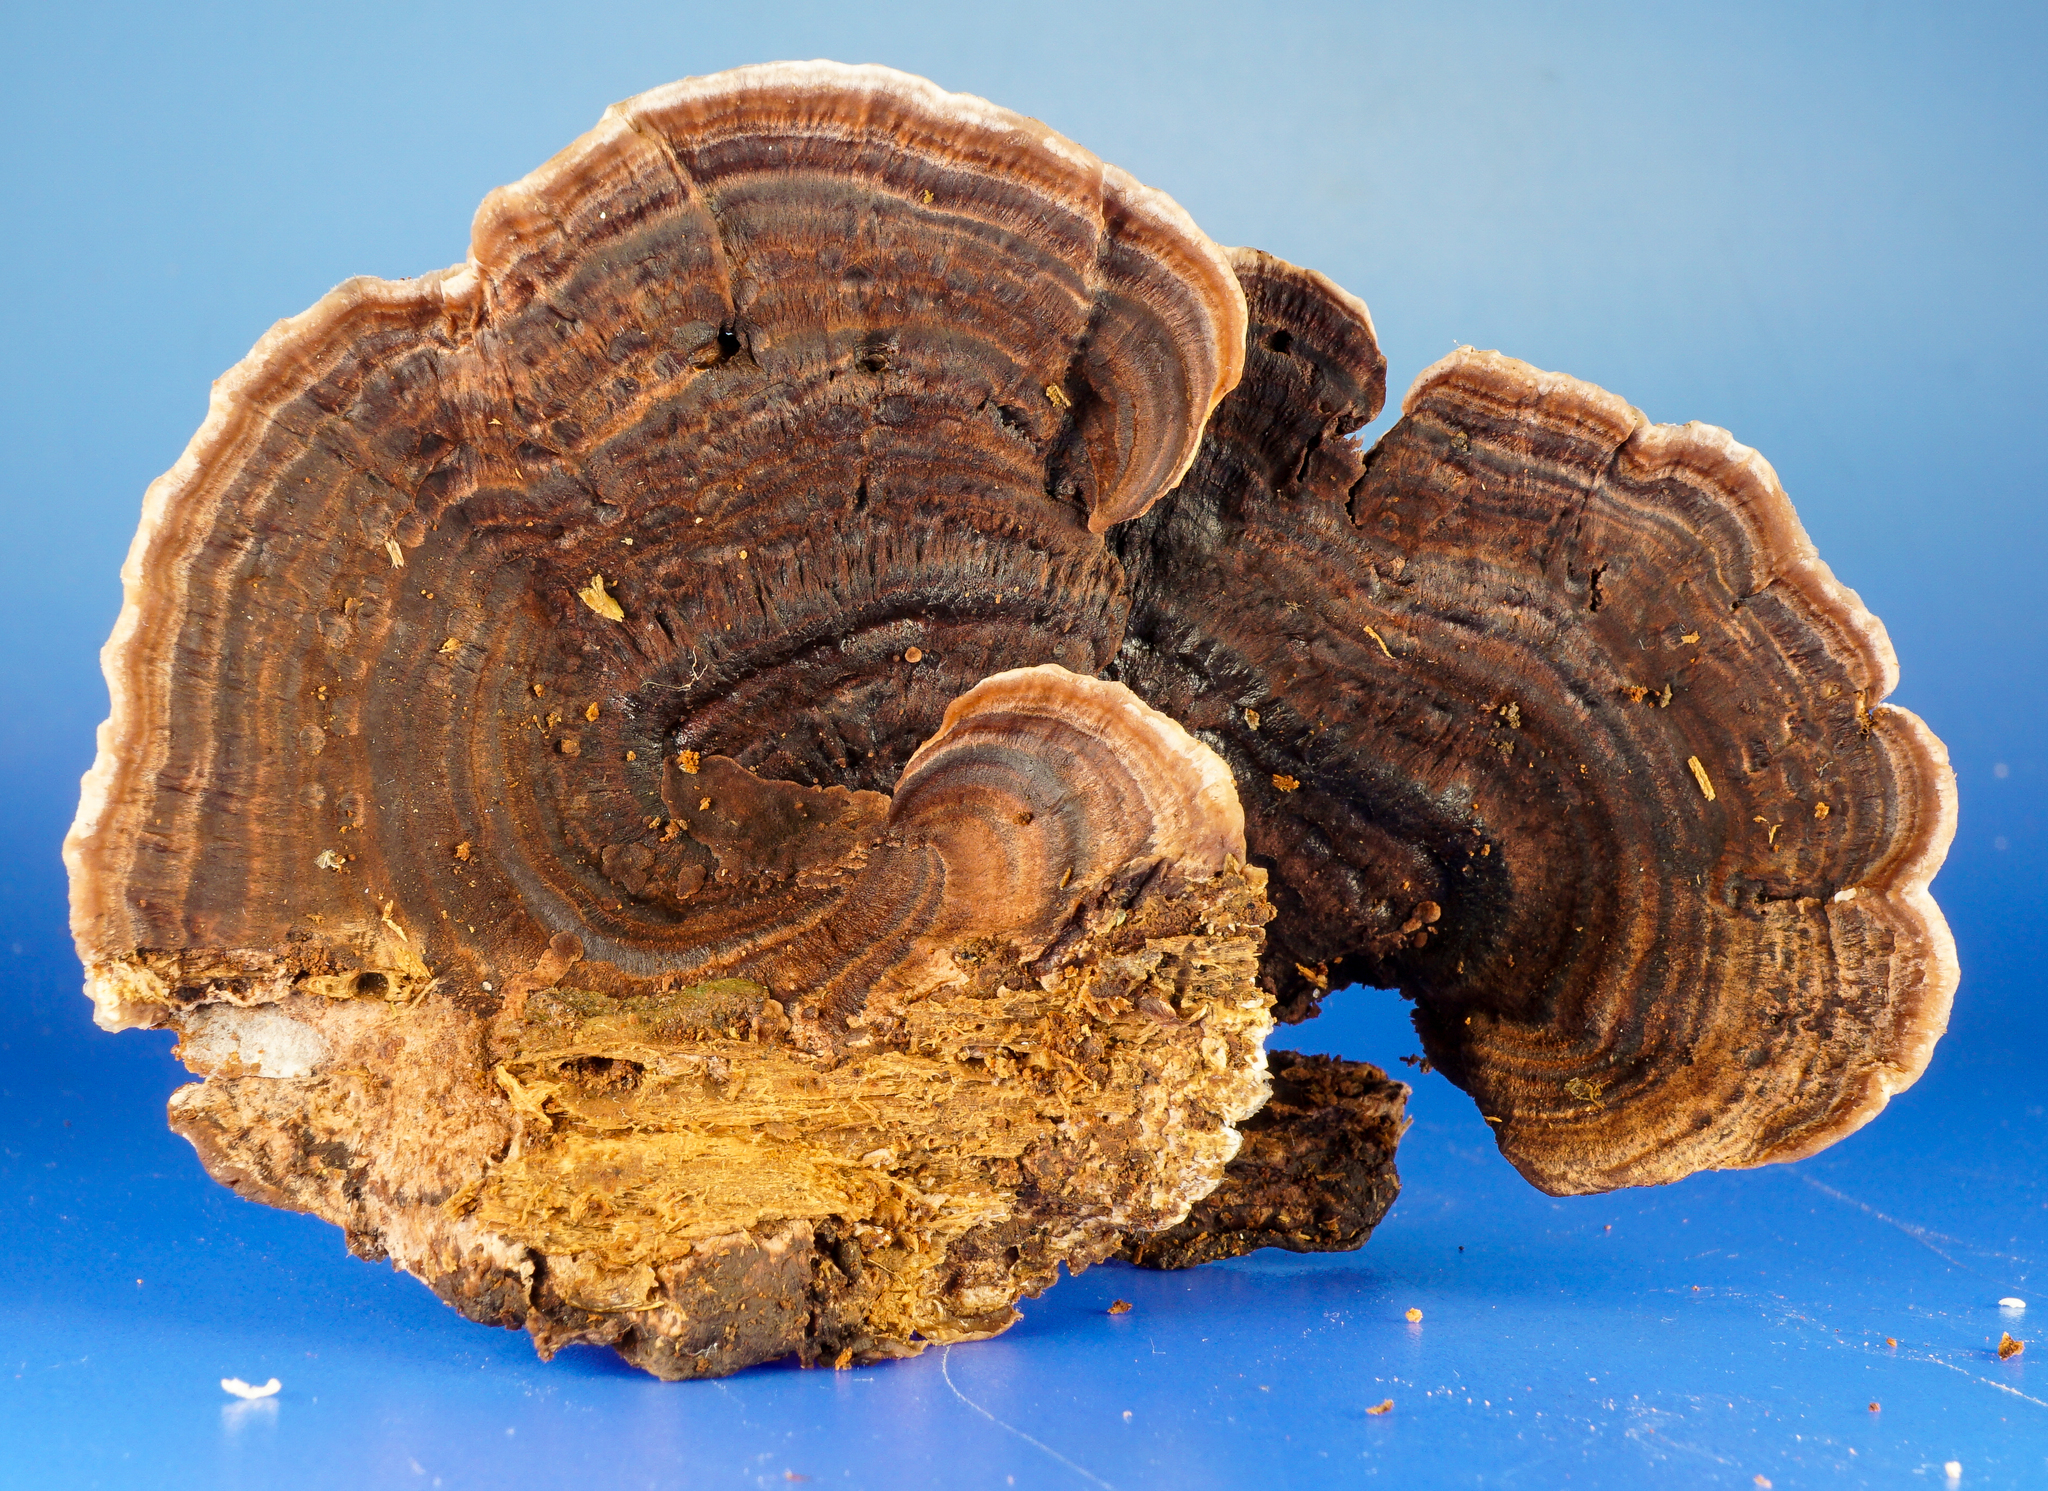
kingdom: Fungi
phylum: Basidiomycota
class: Agaricomycetes
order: Polyporales
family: Steccherinaceae
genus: Nigroporus
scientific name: Nigroporus vinosus
